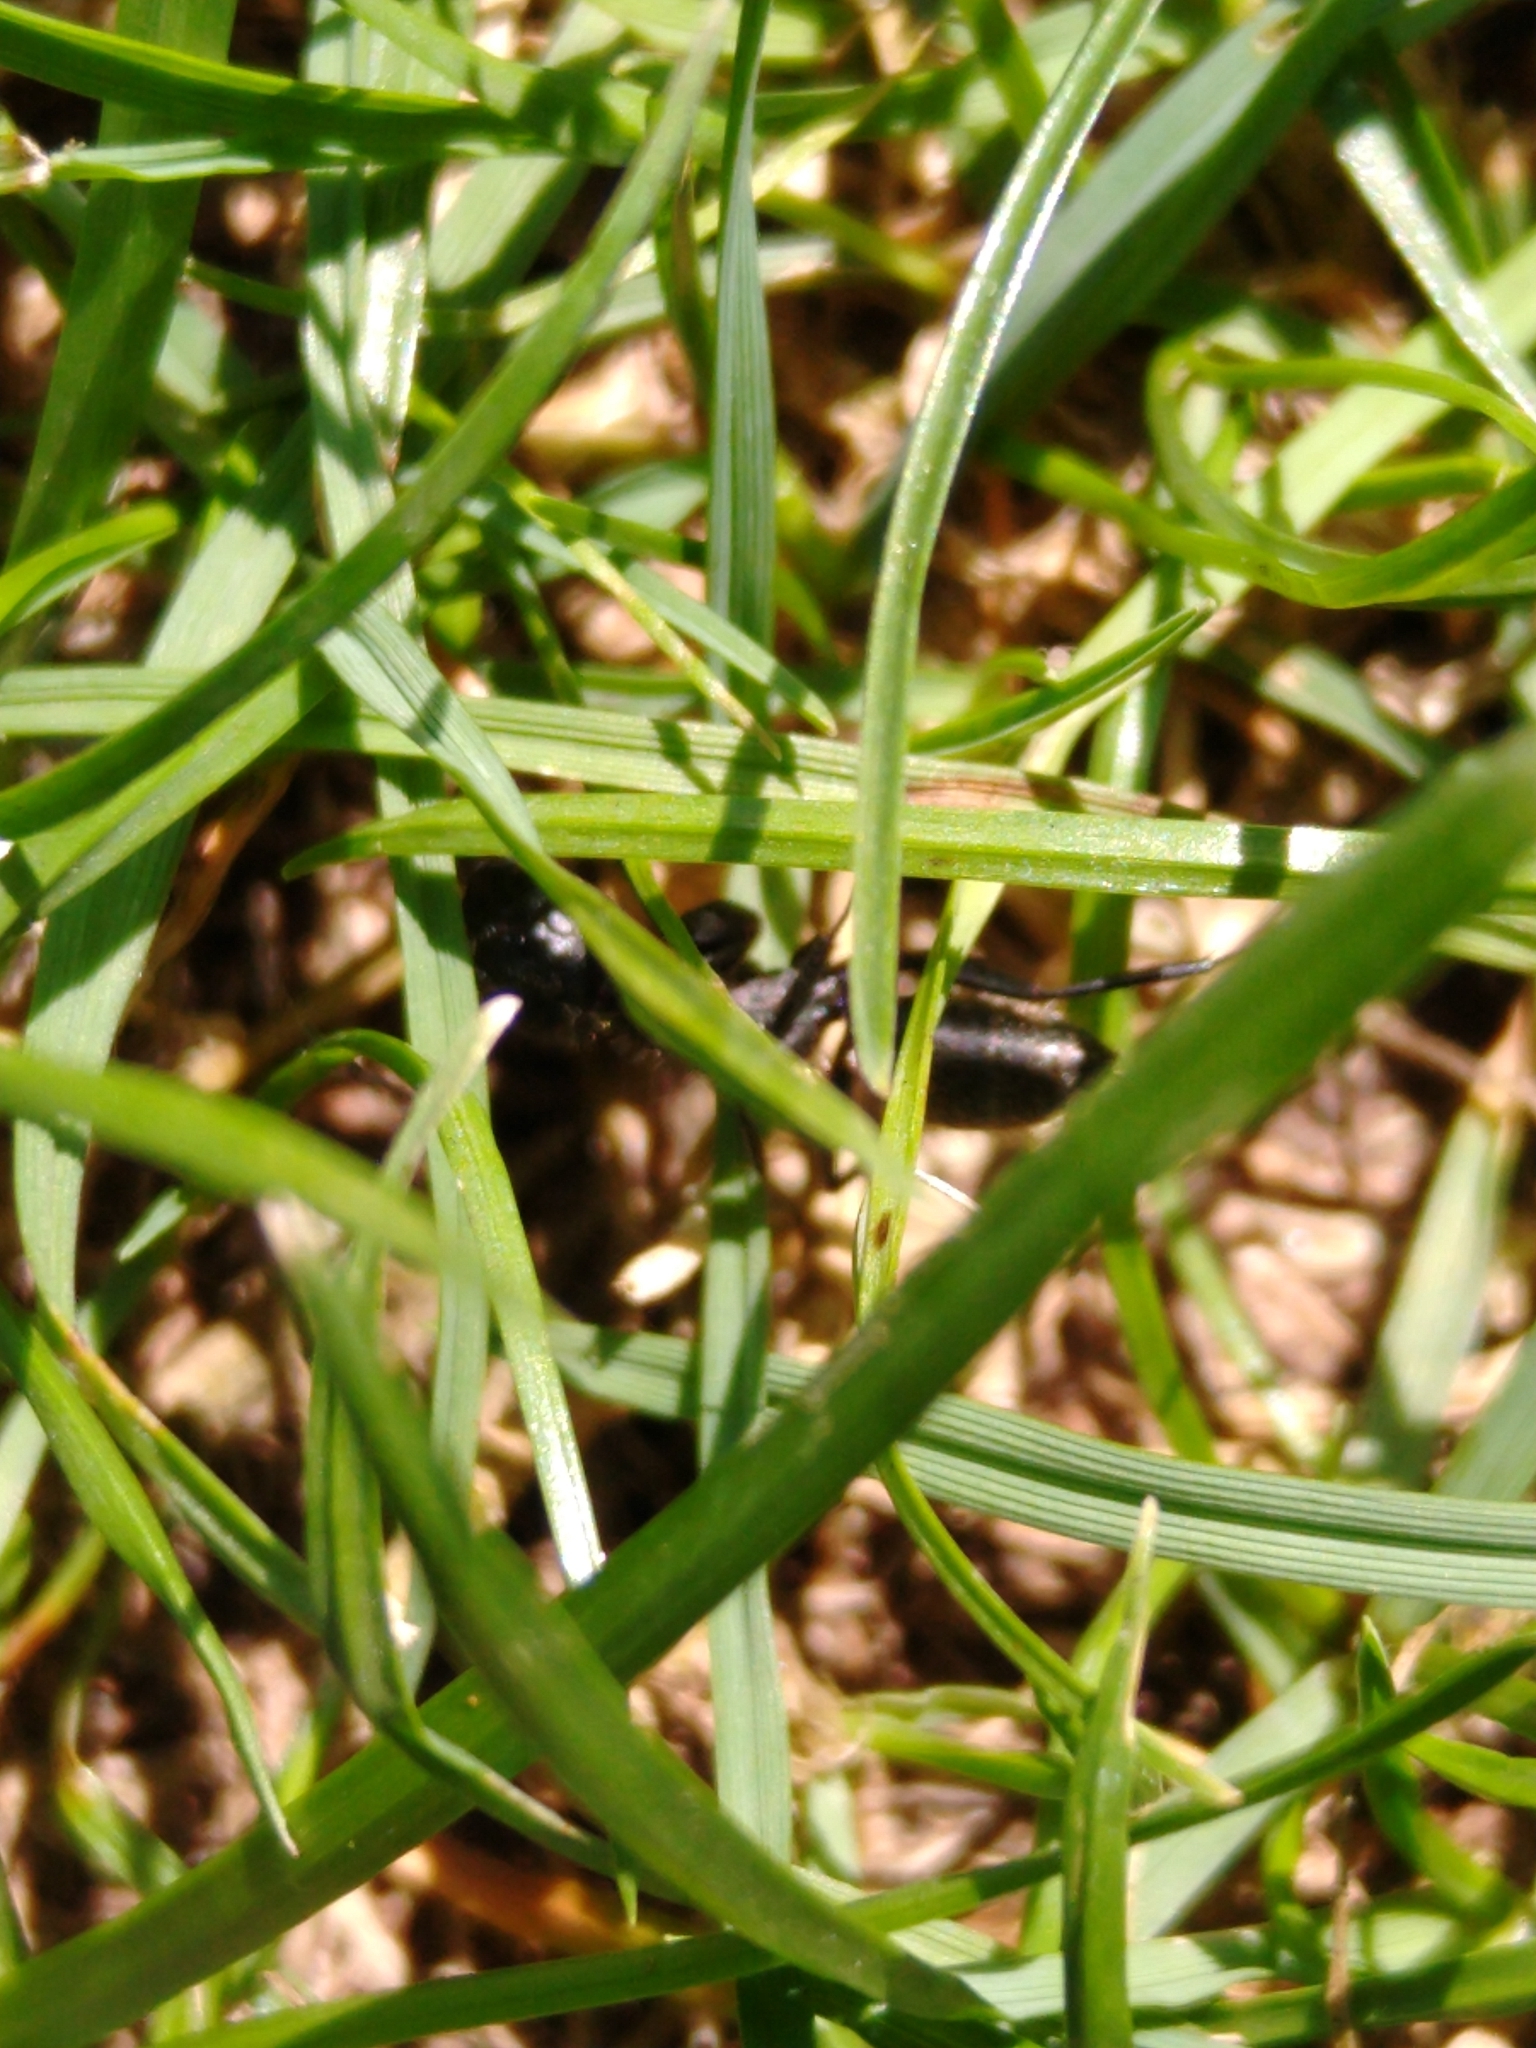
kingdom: Animalia
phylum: Arthropoda
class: Insecta
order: Hymenoptera
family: Formicidae
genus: Camponotus
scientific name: Camponotus vagus
